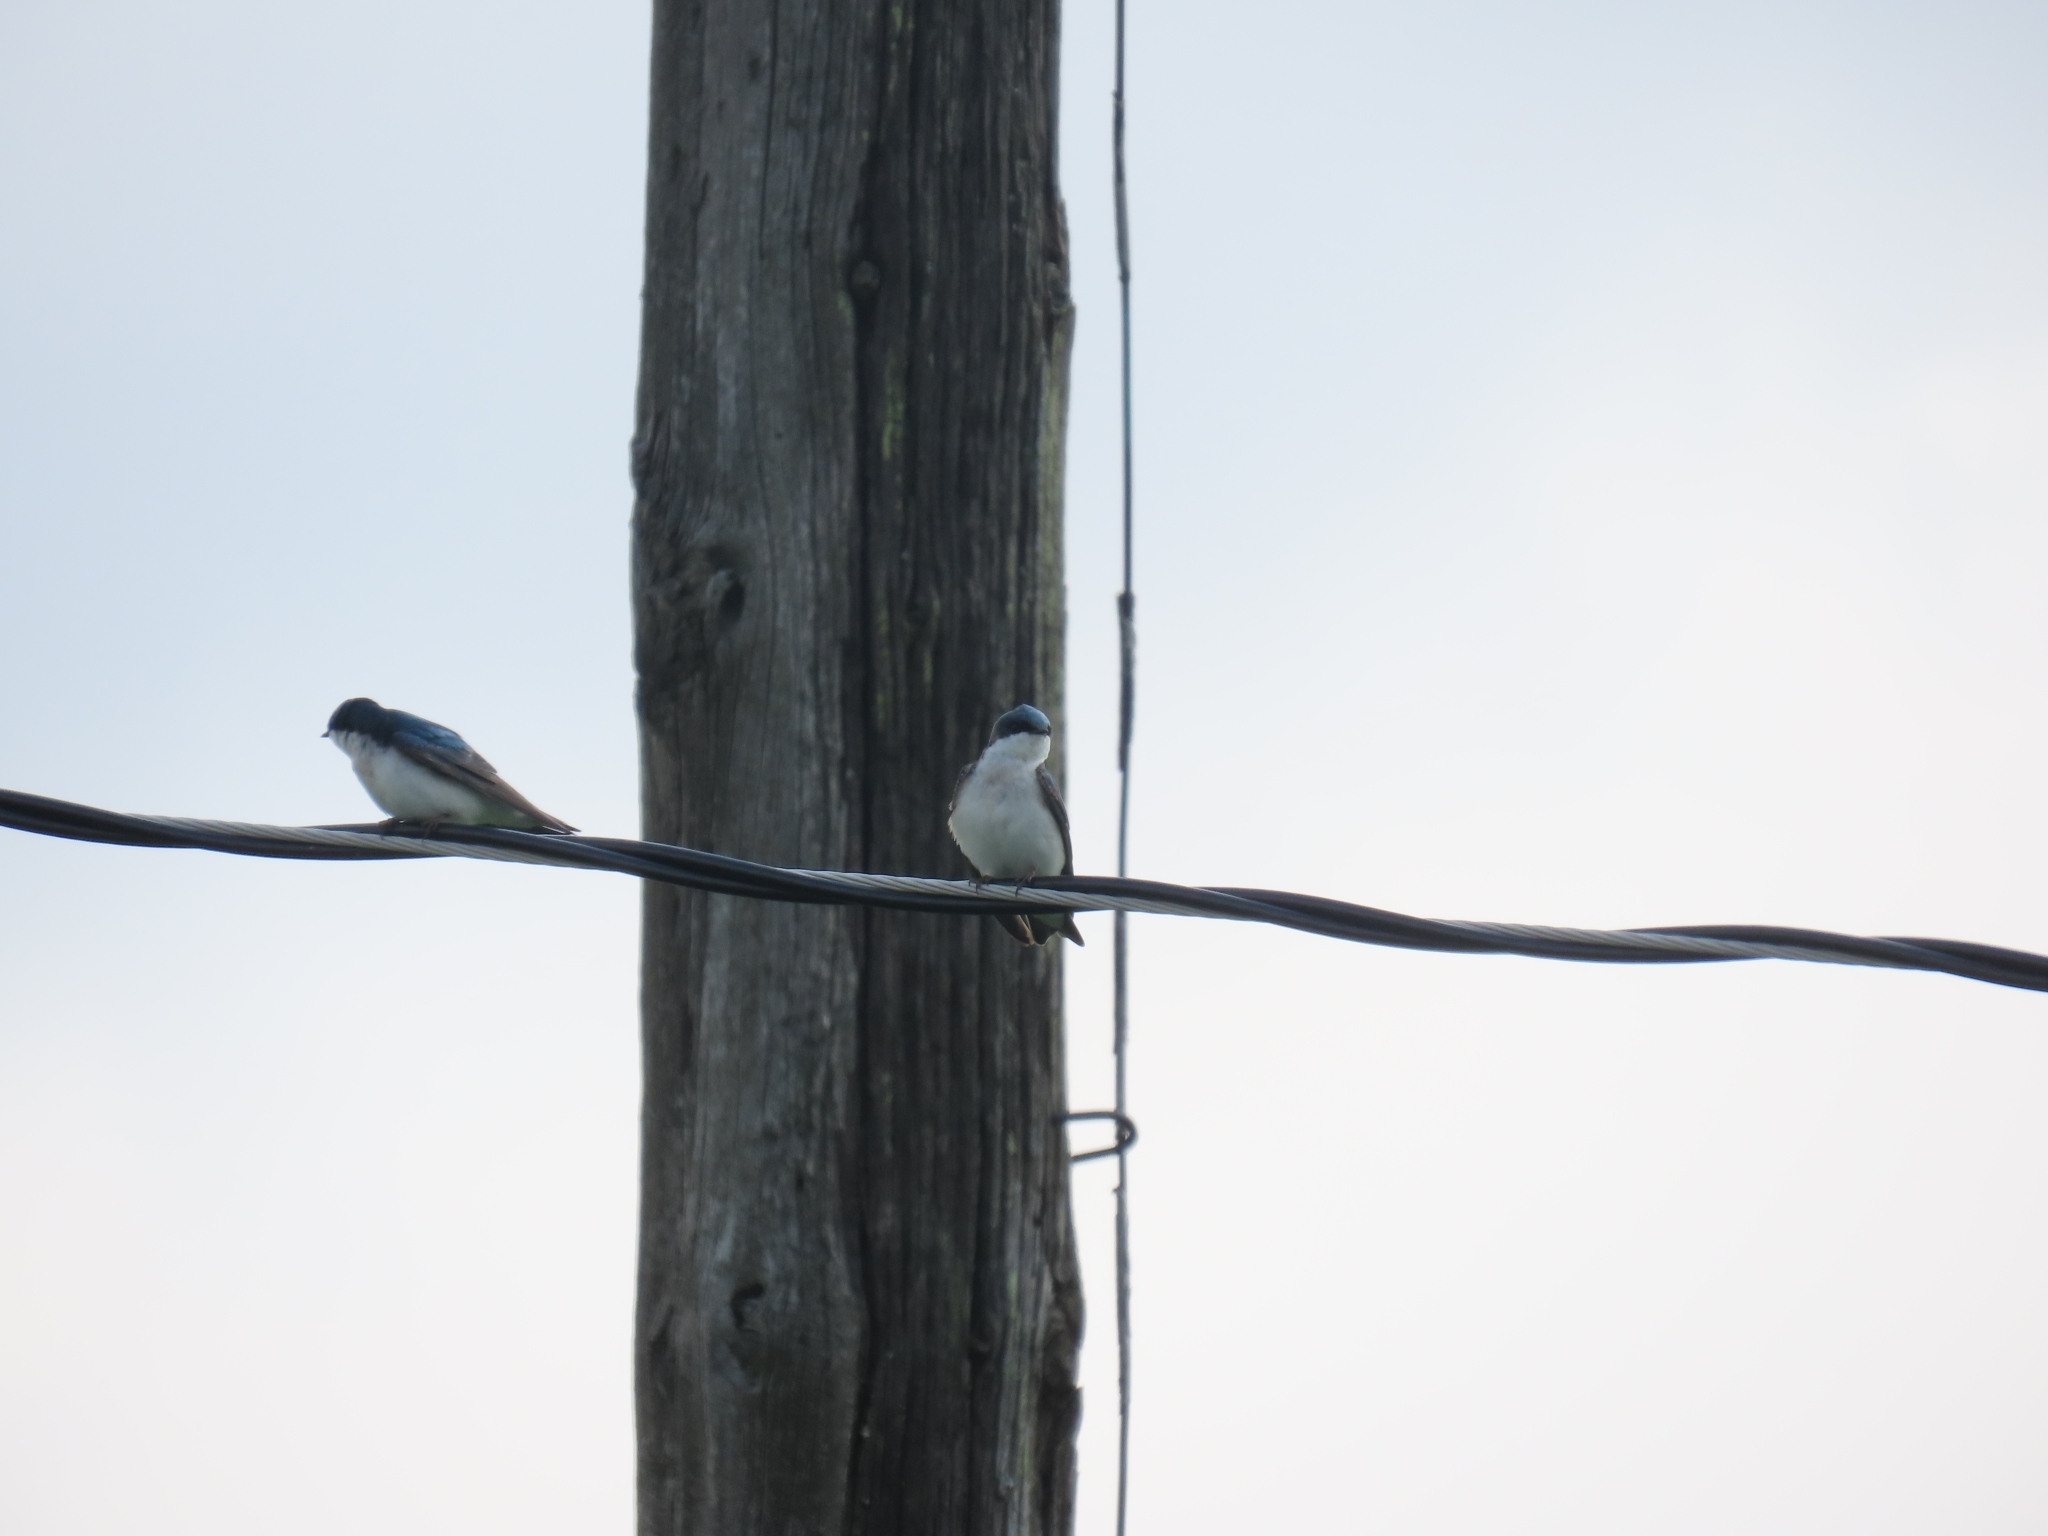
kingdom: Animalia
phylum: Chordata
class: Aves
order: Passeriformes
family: Hirundinidae
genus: Tachycineta
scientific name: Tachycineta bicolor
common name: Tree swallow
